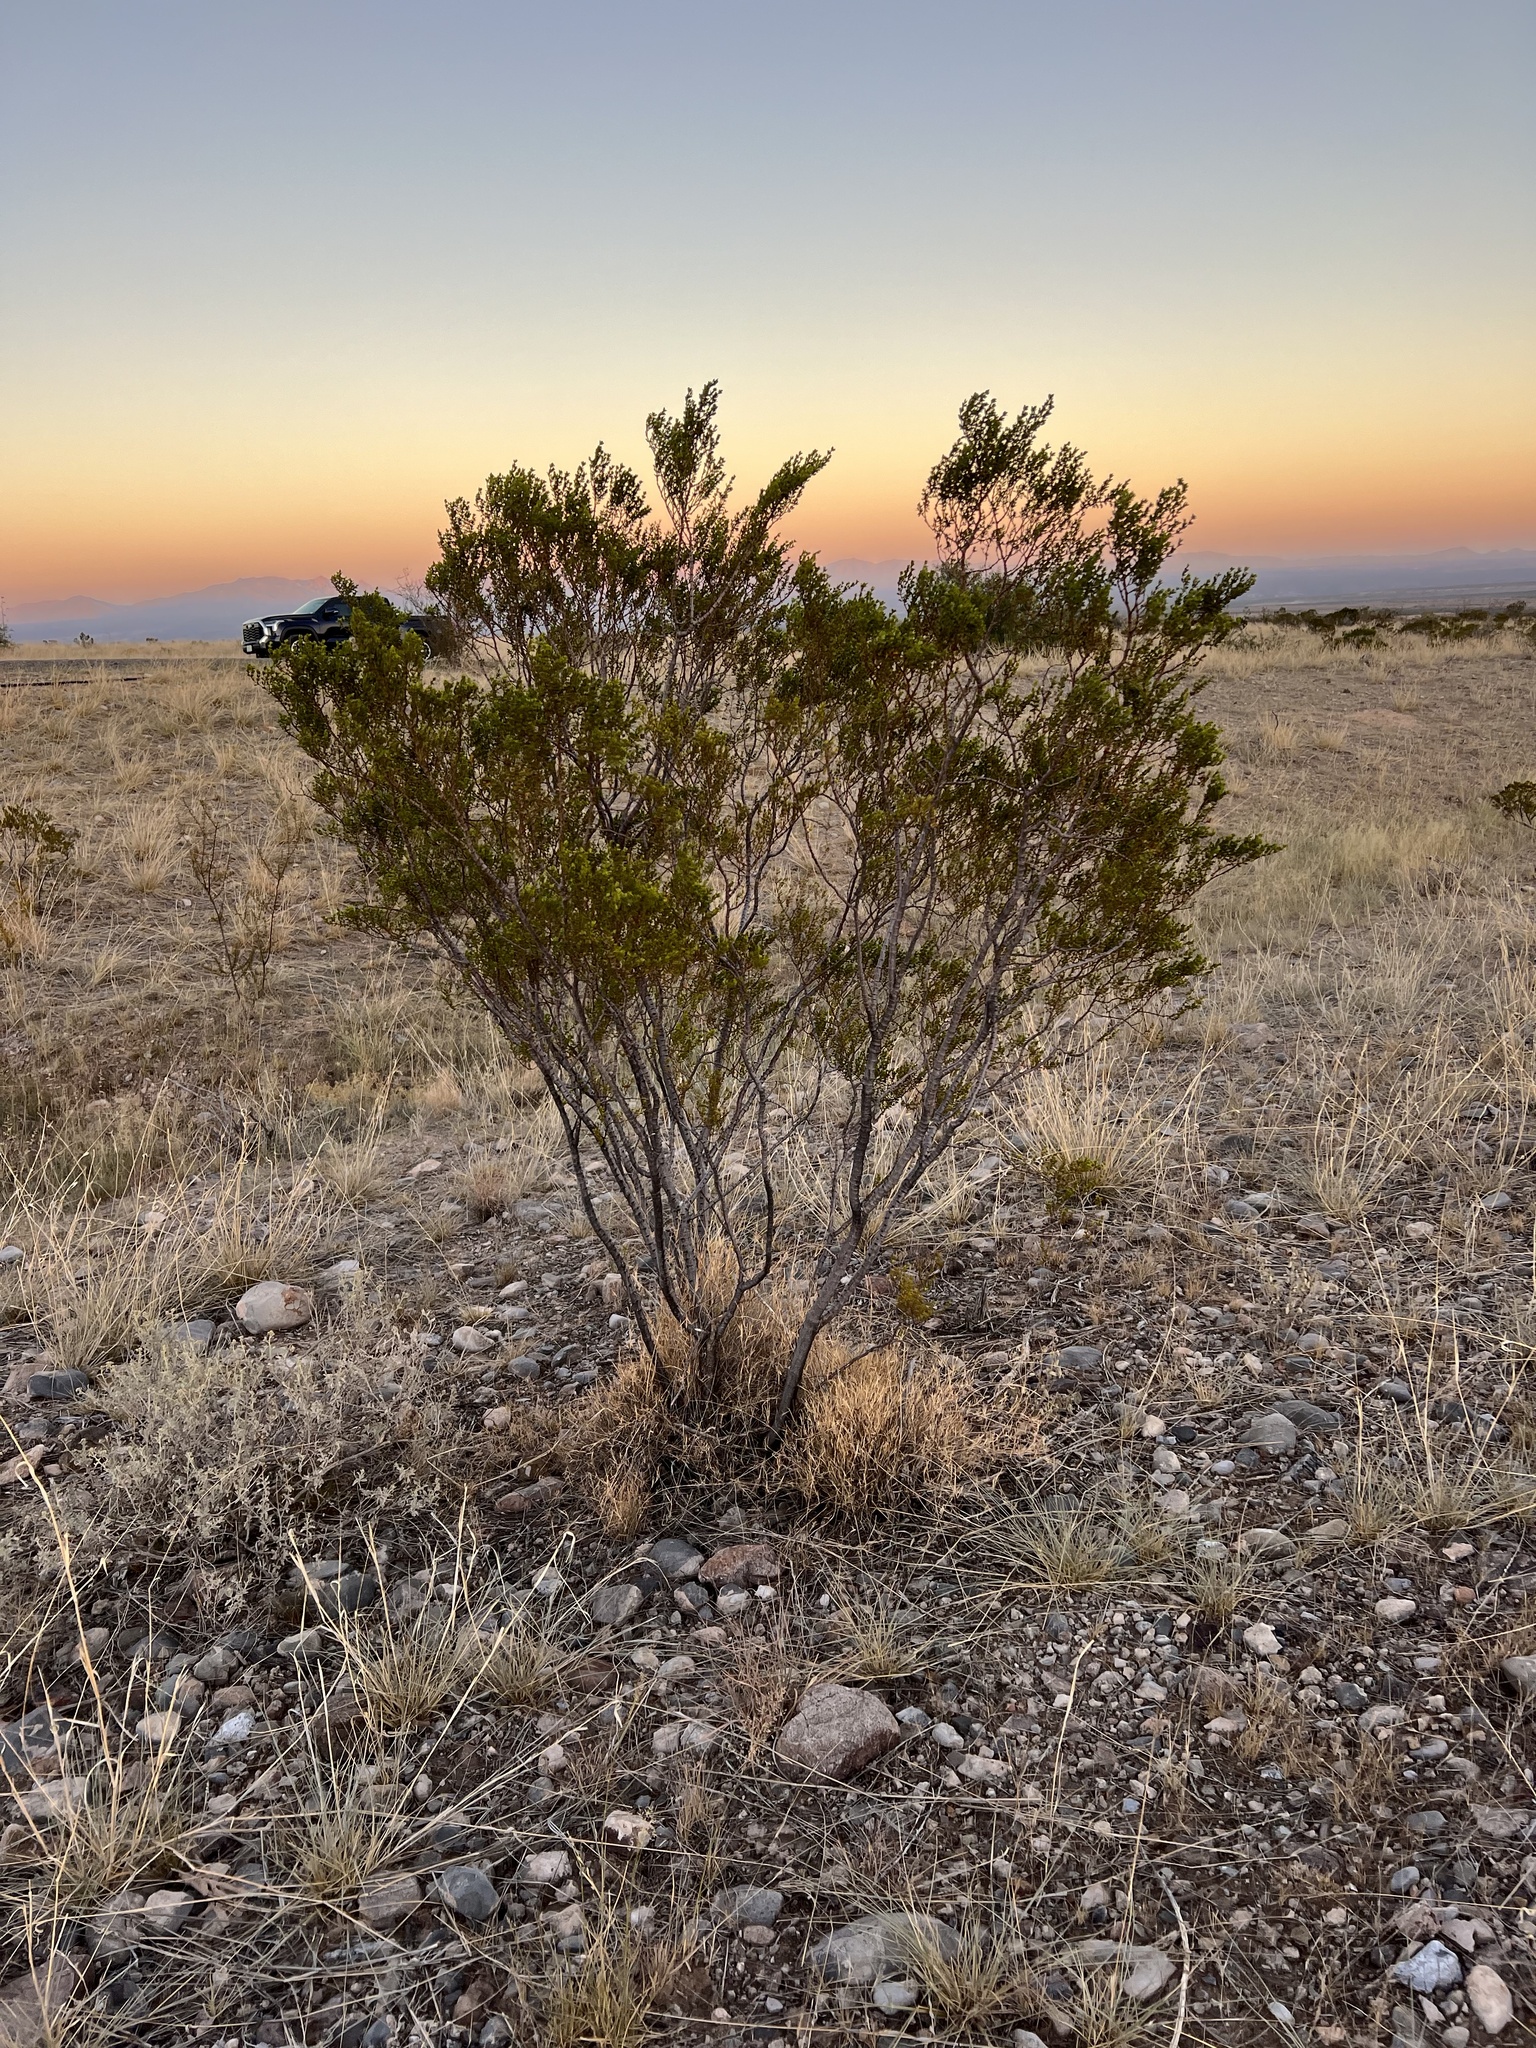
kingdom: Plantae
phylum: Tracheophyta
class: Magnoliopsida
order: Zygophyllales
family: Zygophyllaceae
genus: Larrea
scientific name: Larrea tridentata
